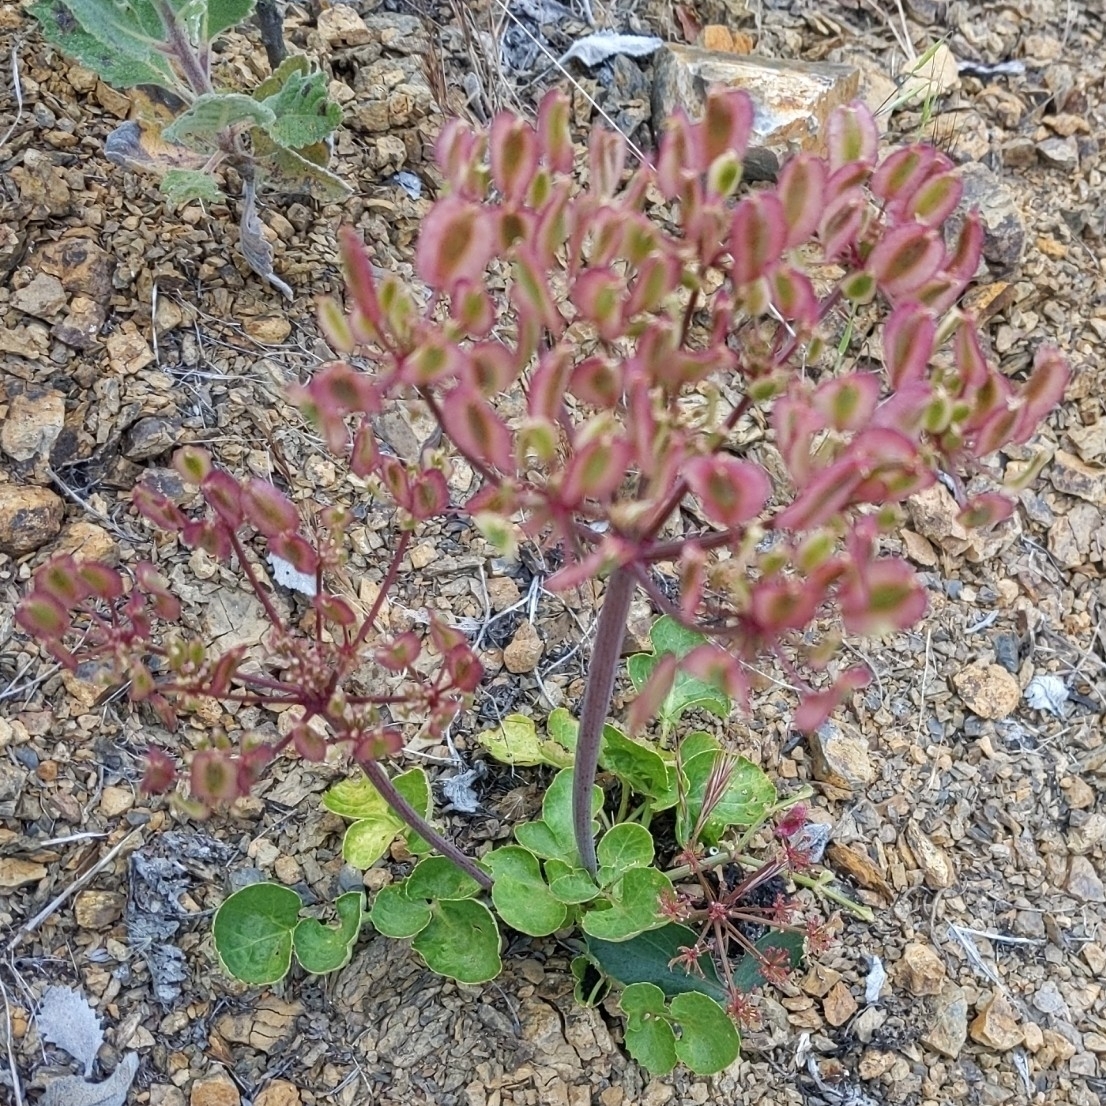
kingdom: Plantae
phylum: Tracheophyta
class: Magnoliopsida
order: Apiales
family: Apiaceae
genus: Lomatium
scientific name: Lomatium lucidum
